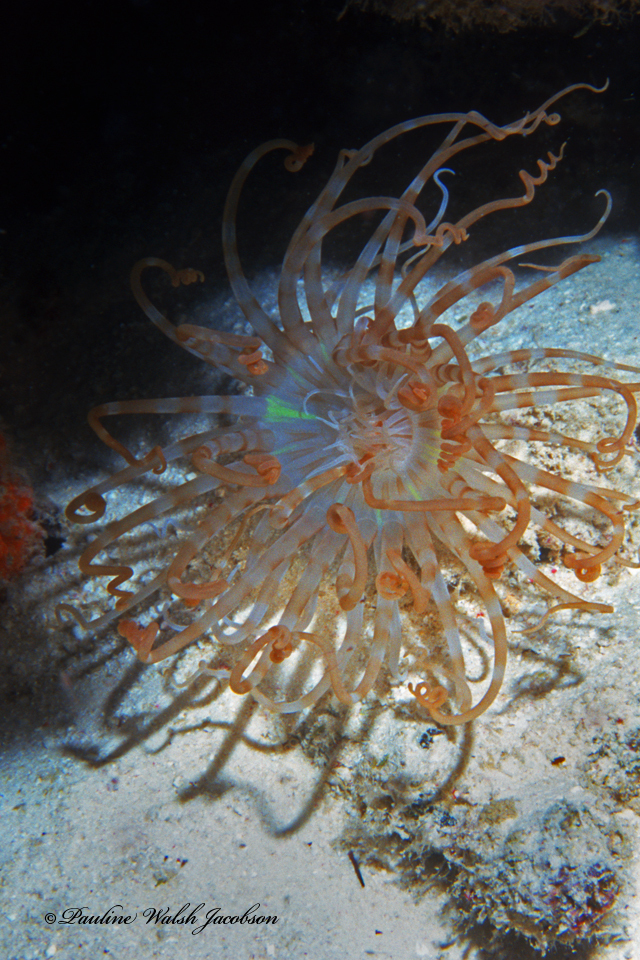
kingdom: Animalia
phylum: Cnidaria
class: Anthozoa
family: Arachnactidae
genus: Isarachnanthus
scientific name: Isarachnanthus nocturnus
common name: Banded tube-dwelling anemone
